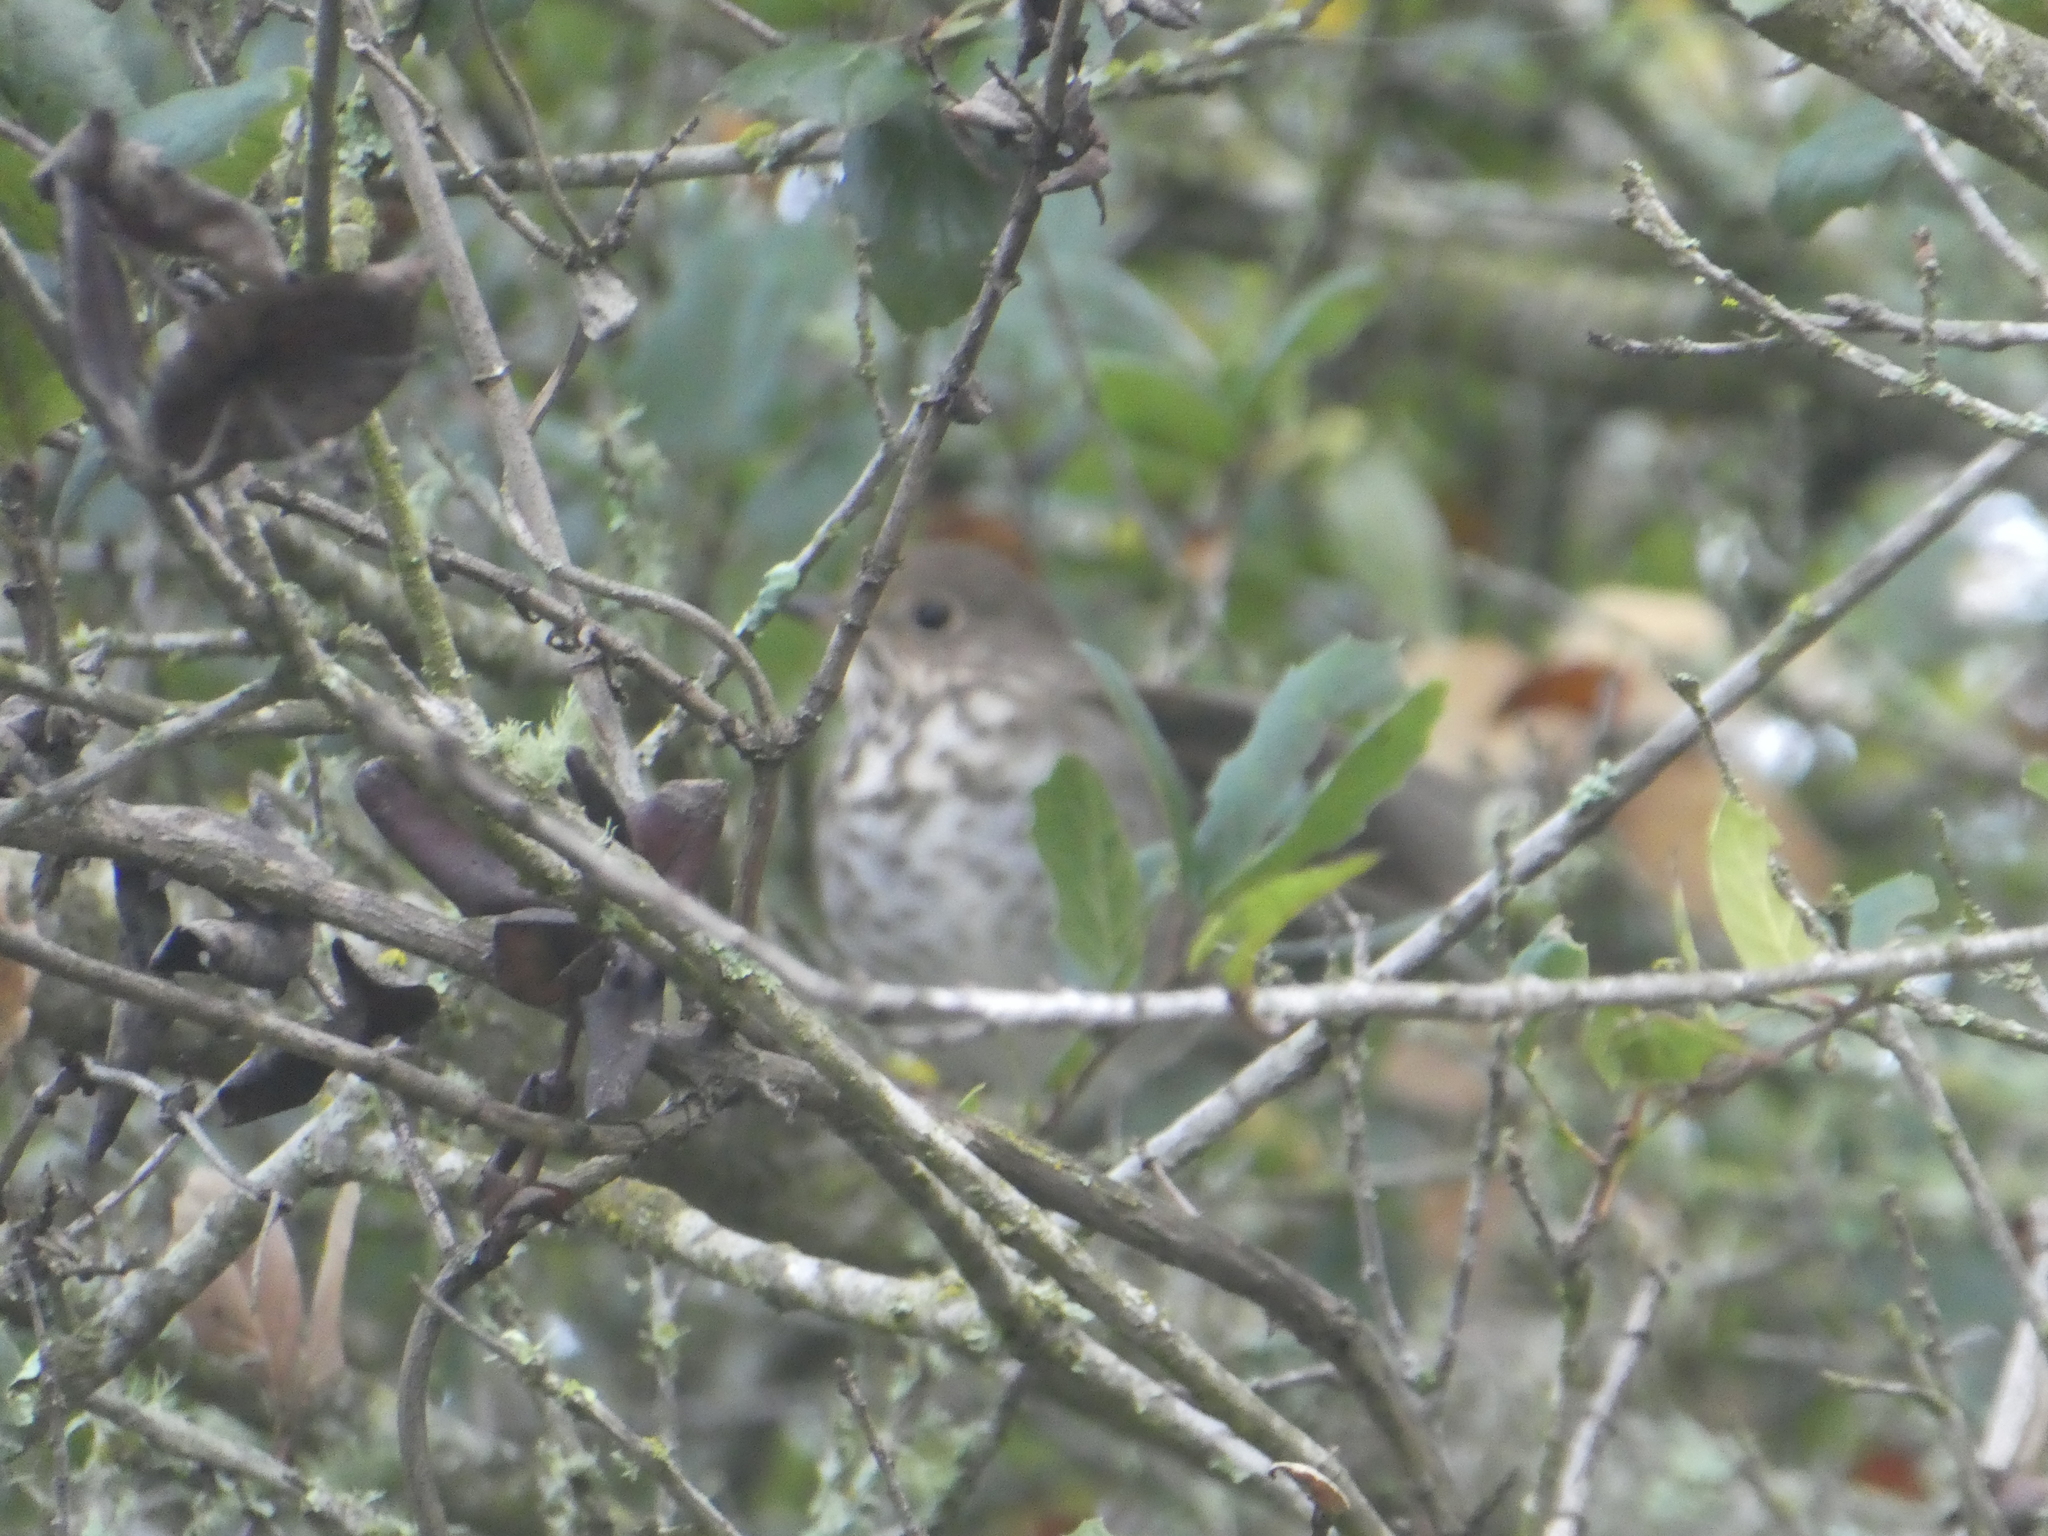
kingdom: Animalia
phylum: Chordata
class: Aves
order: Passeriformes
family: Turdidae
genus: Catharus
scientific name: Catharus guttatus
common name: Hermit thrush
